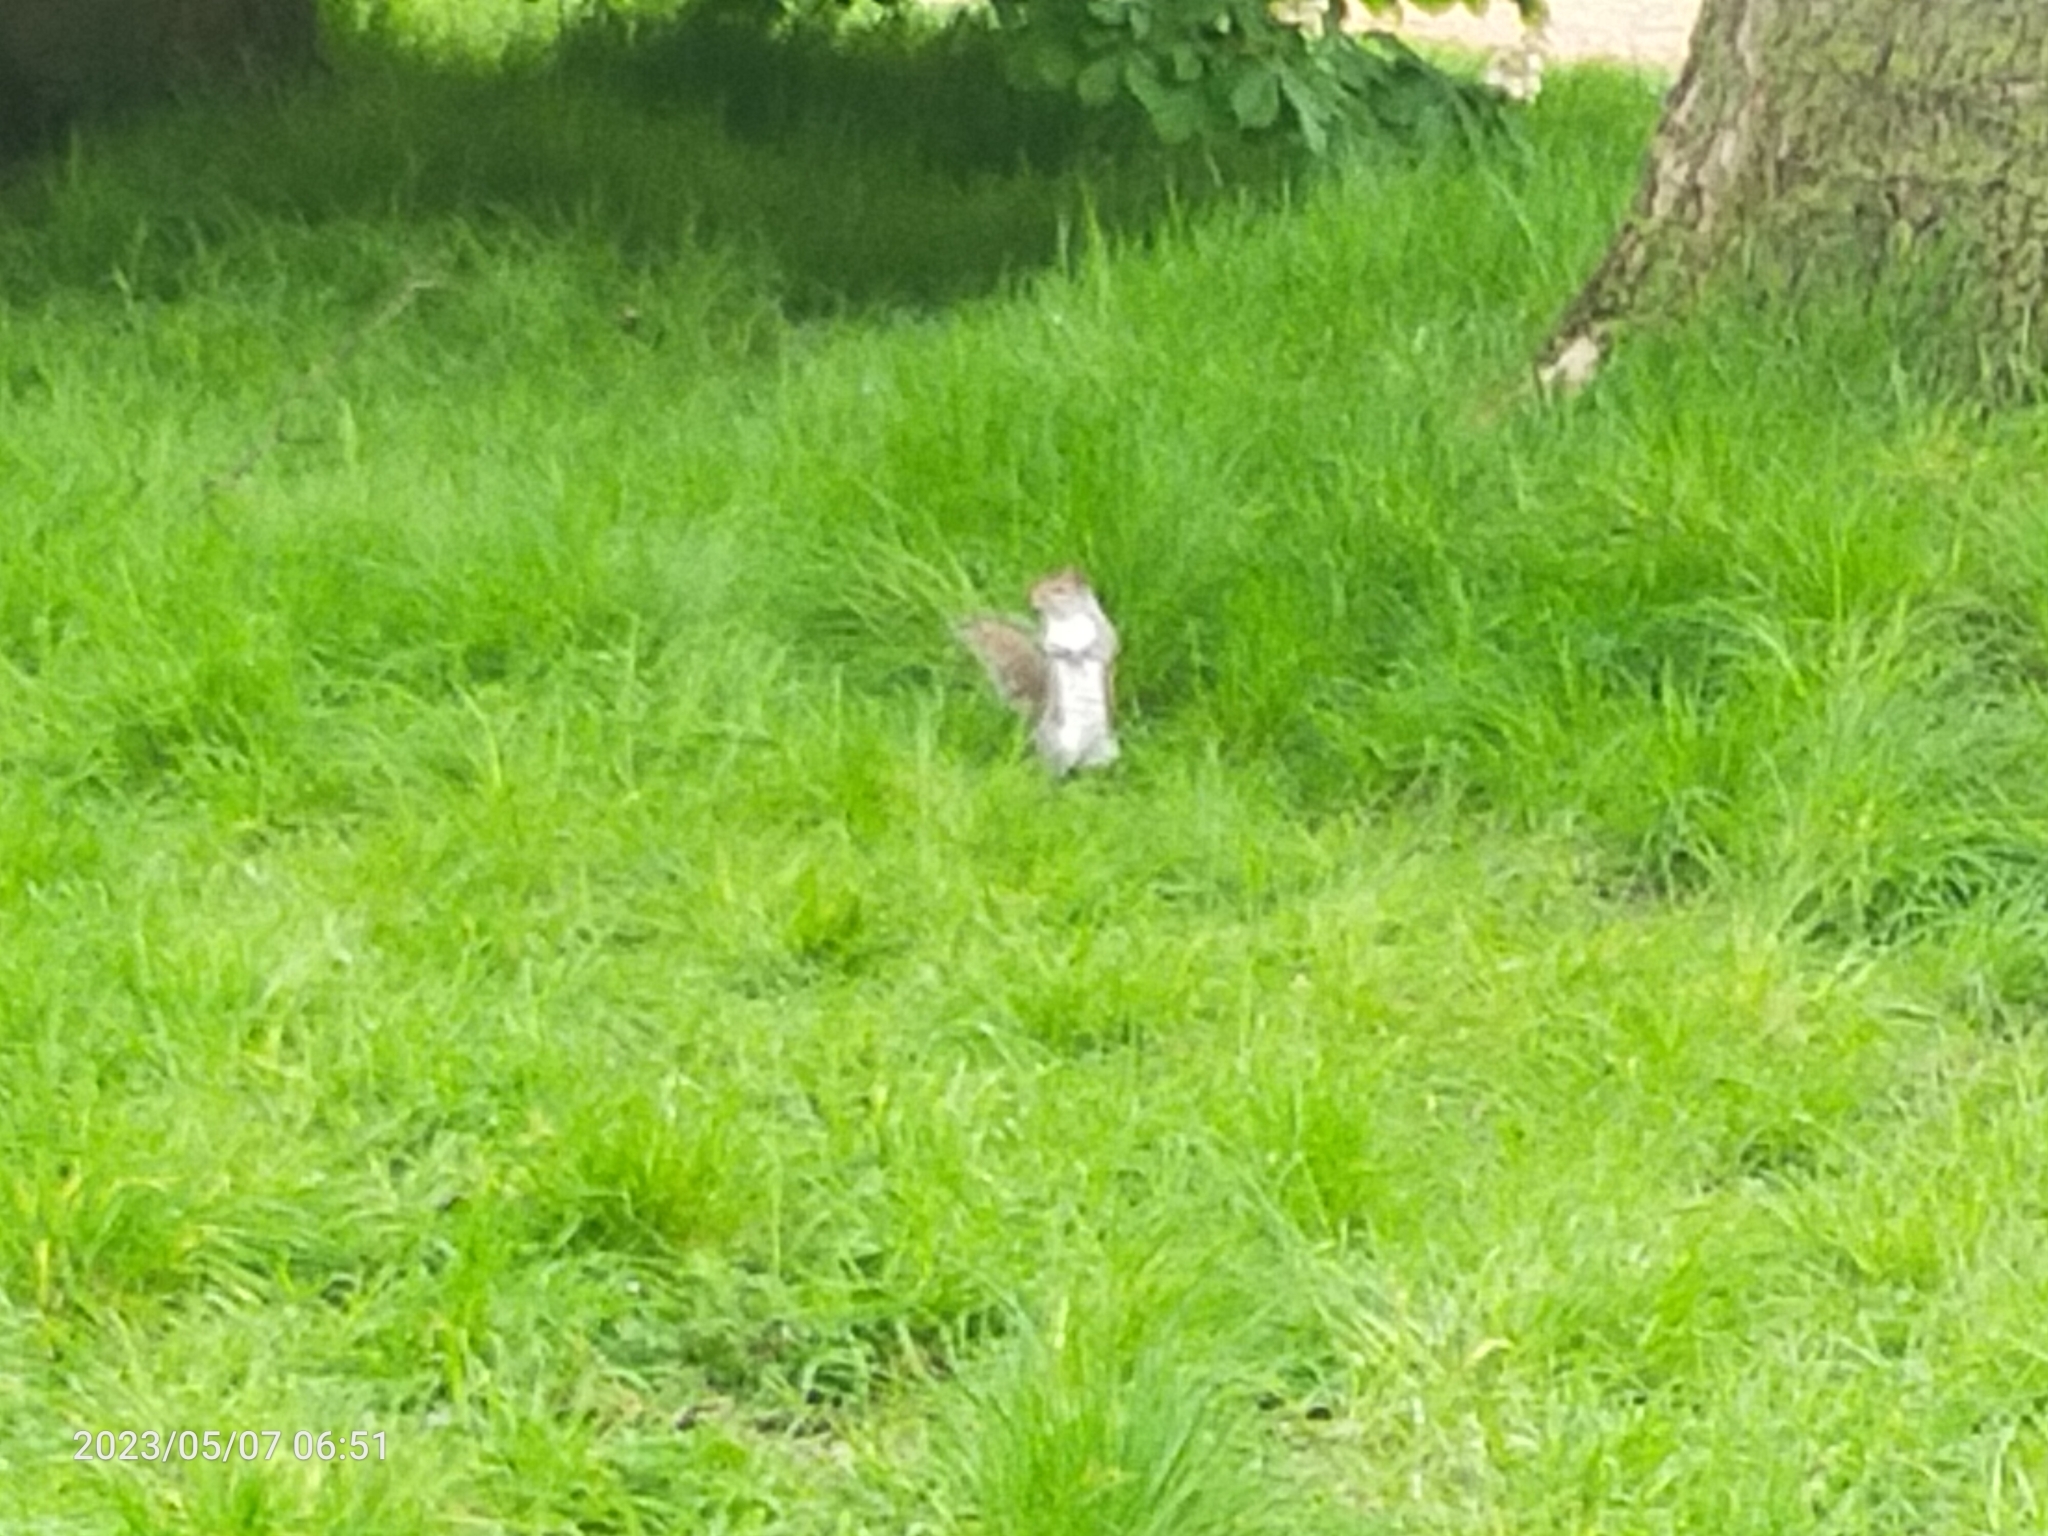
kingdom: Animalia
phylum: Chordata
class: Mammalia
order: Rodentia
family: Sciuridae
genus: Sciurus
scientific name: Sciurus carolinensis
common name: Eastern gray squirrel
